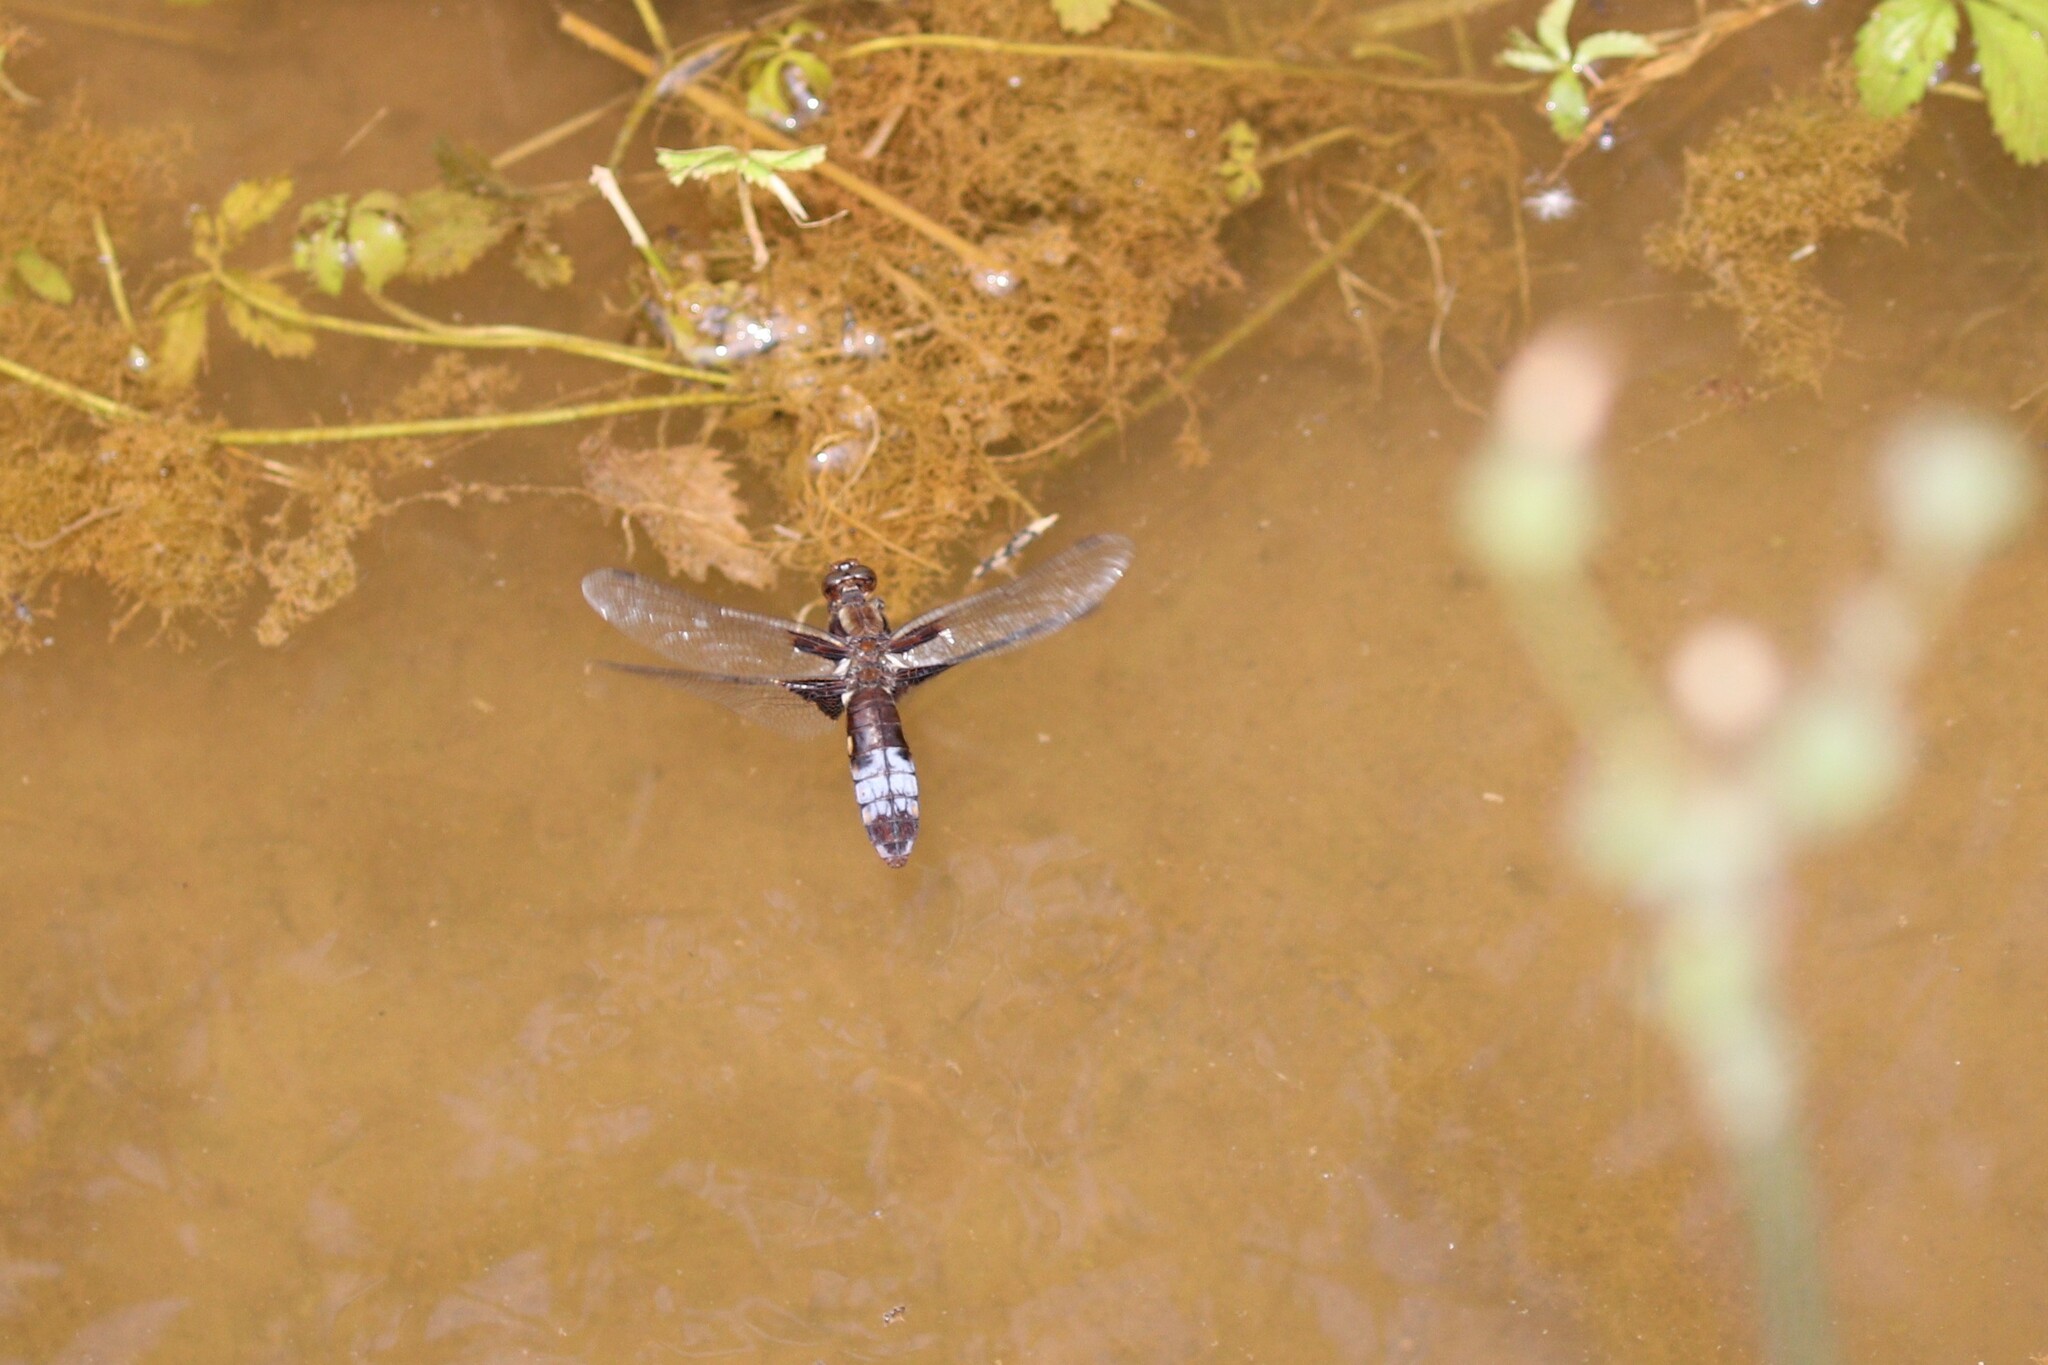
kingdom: Animalia
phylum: Arthropoda
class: Insecta
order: Odonata
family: Libellulidae
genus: Libellula
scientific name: Libellula depressa
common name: Broad-bodied chaser
